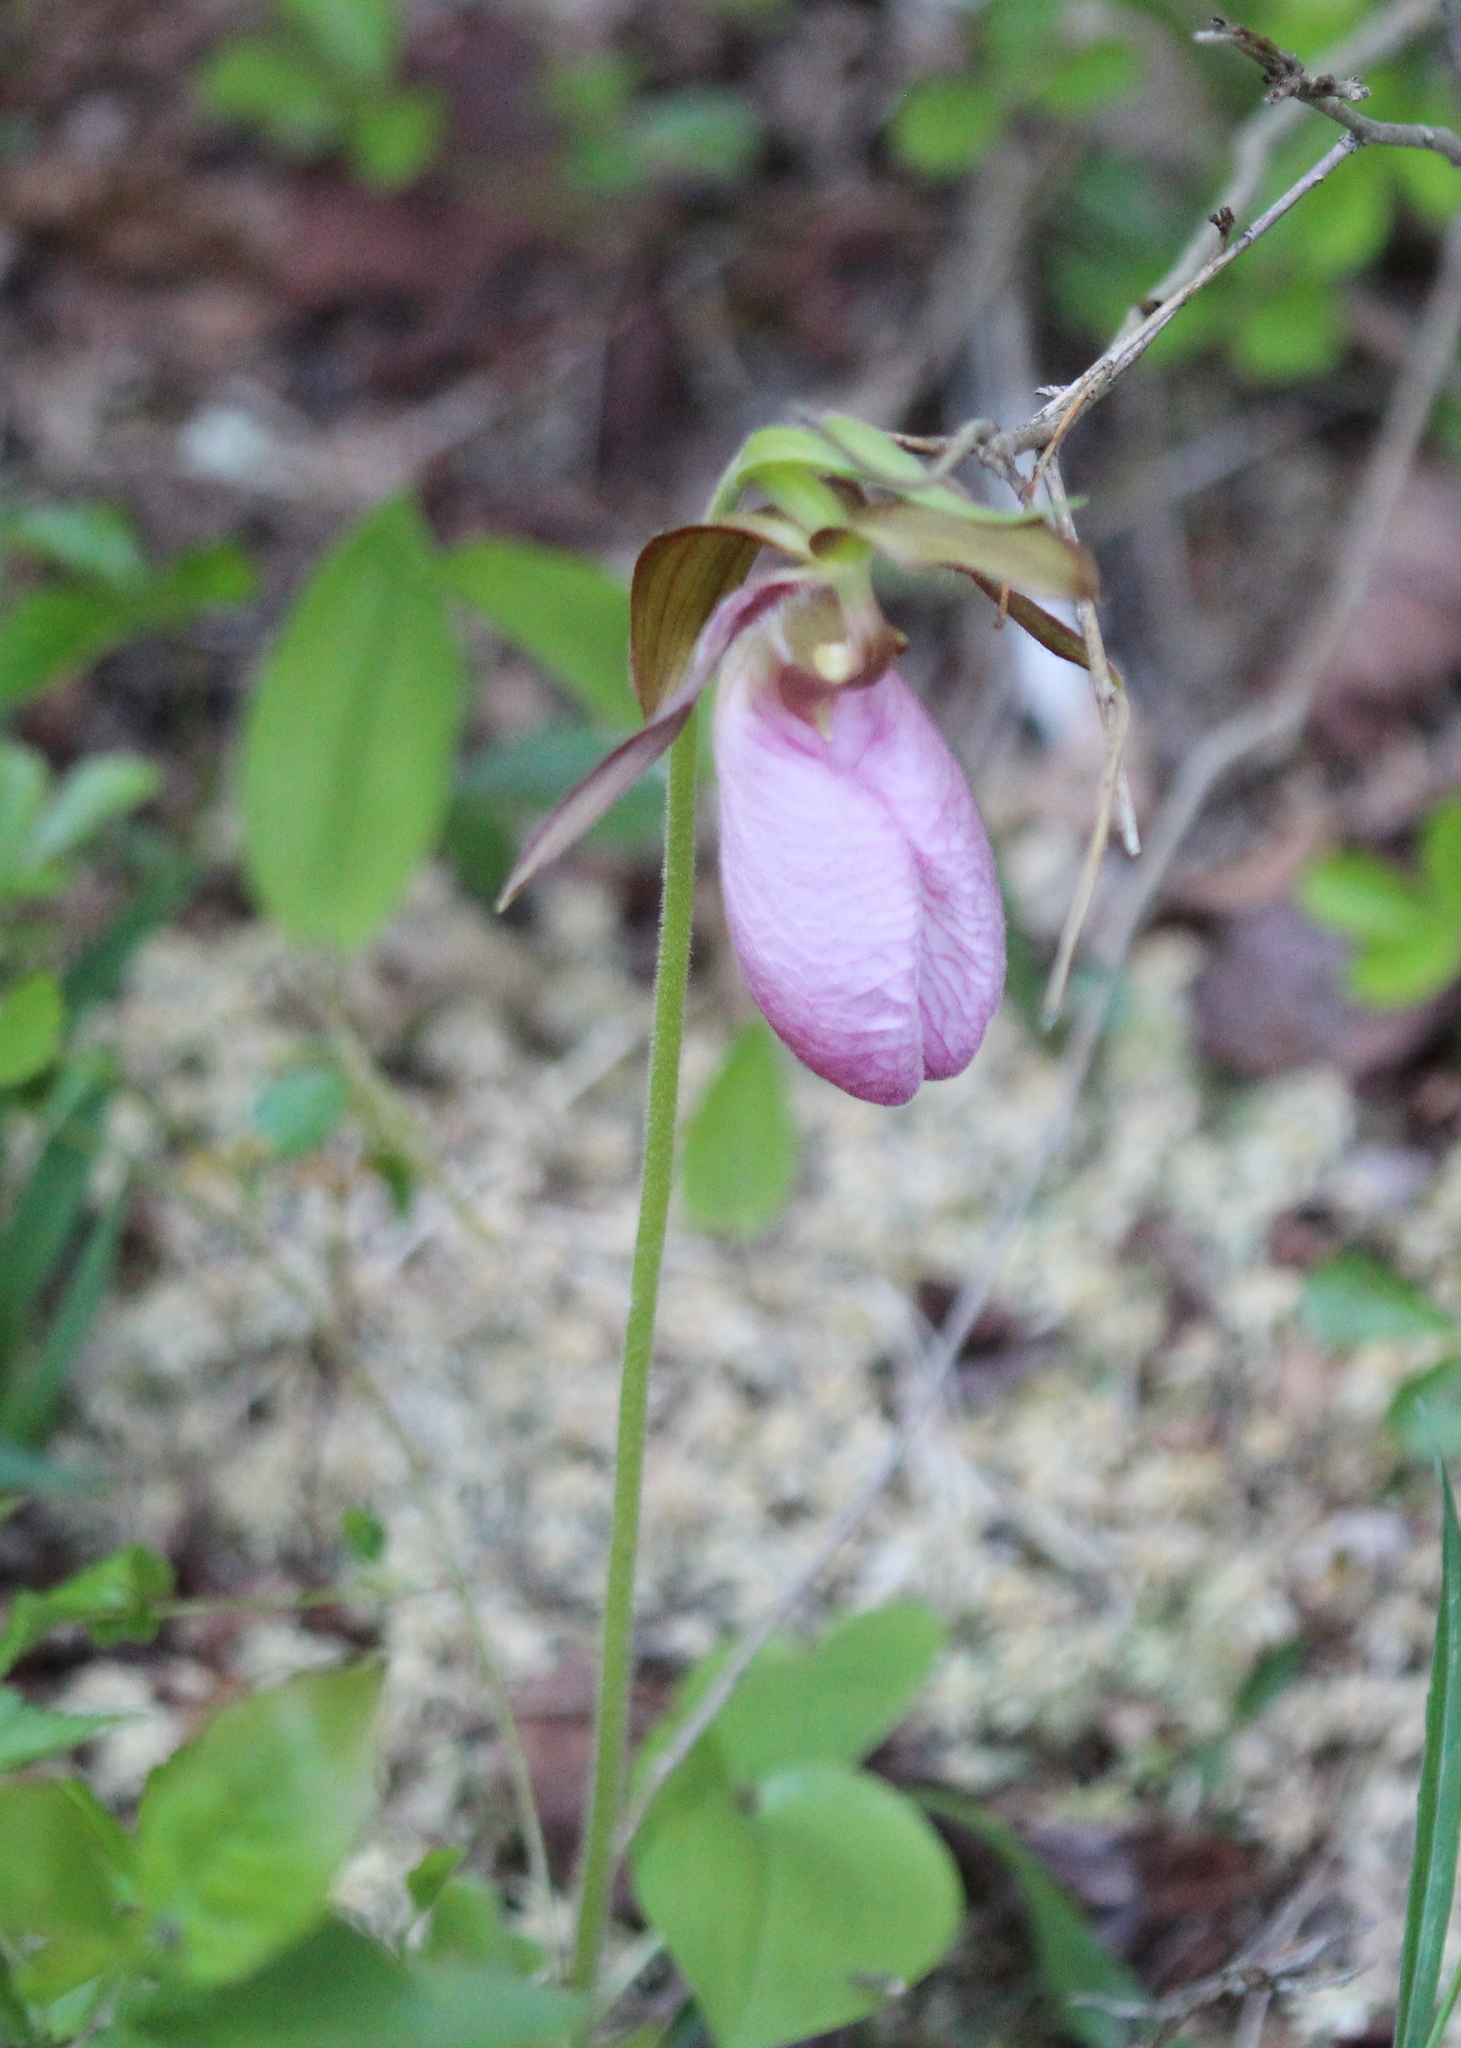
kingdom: Plantae
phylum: Tracheophyta
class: Liliopsida
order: Asparagales
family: Orchidaceae
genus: Cypripedium
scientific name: Cypripedium acaule
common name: Pink lady's-slipper
